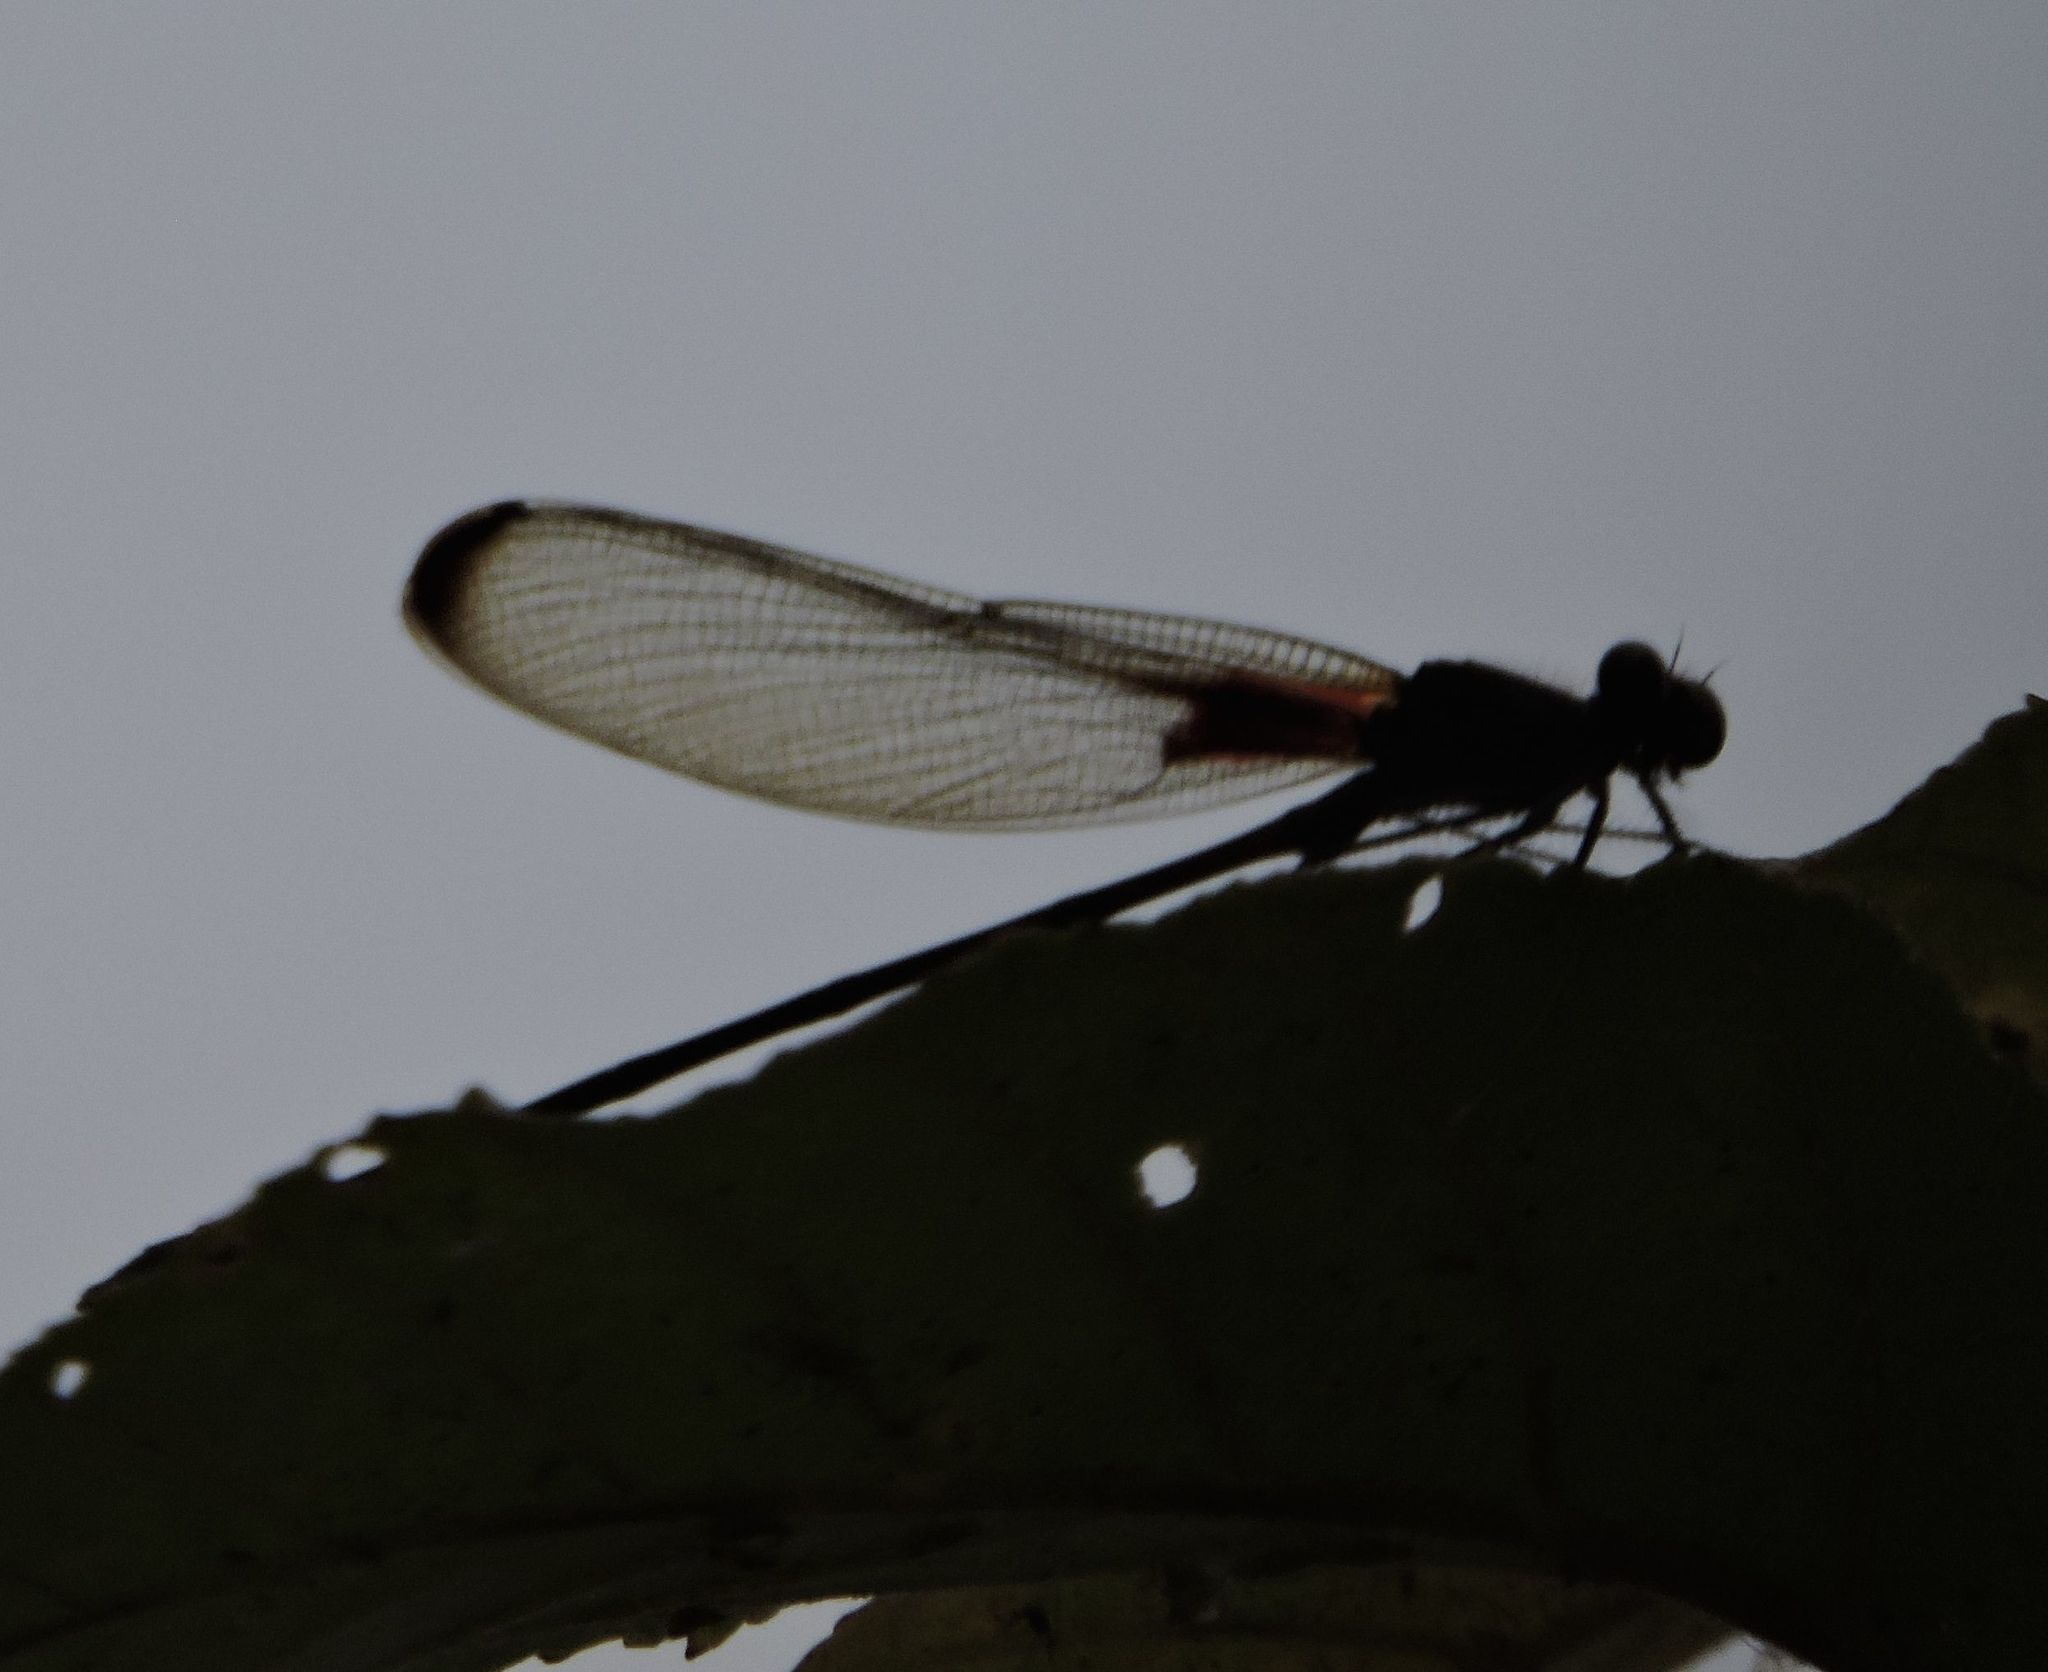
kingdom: Animalia
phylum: Arthropoda
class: Insecta
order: Odonata
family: Calopterygidae
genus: Hetaerina
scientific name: Hetaerina titia
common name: Smoky rubyspot
